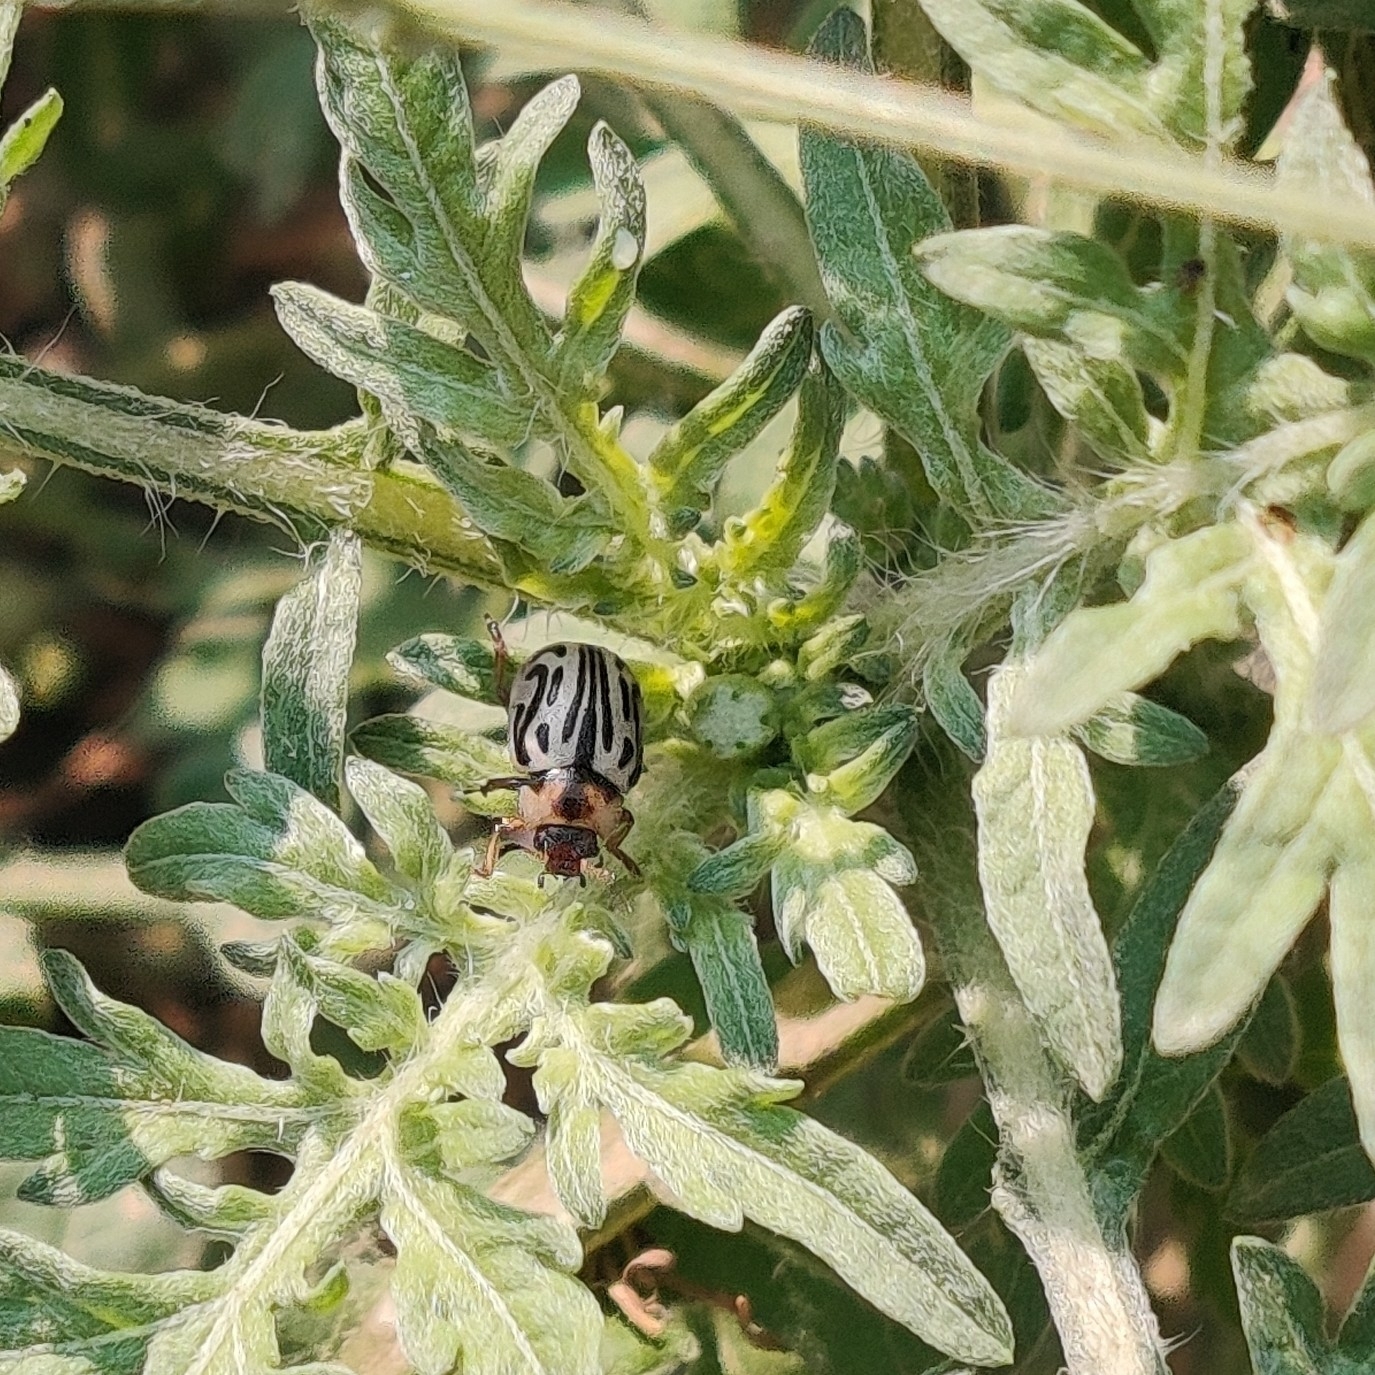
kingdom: Animalia
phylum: Arthropoda
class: Insecta
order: Coleoptera
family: Chrysomelidae
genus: Calligrapha
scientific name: Calligrapha
